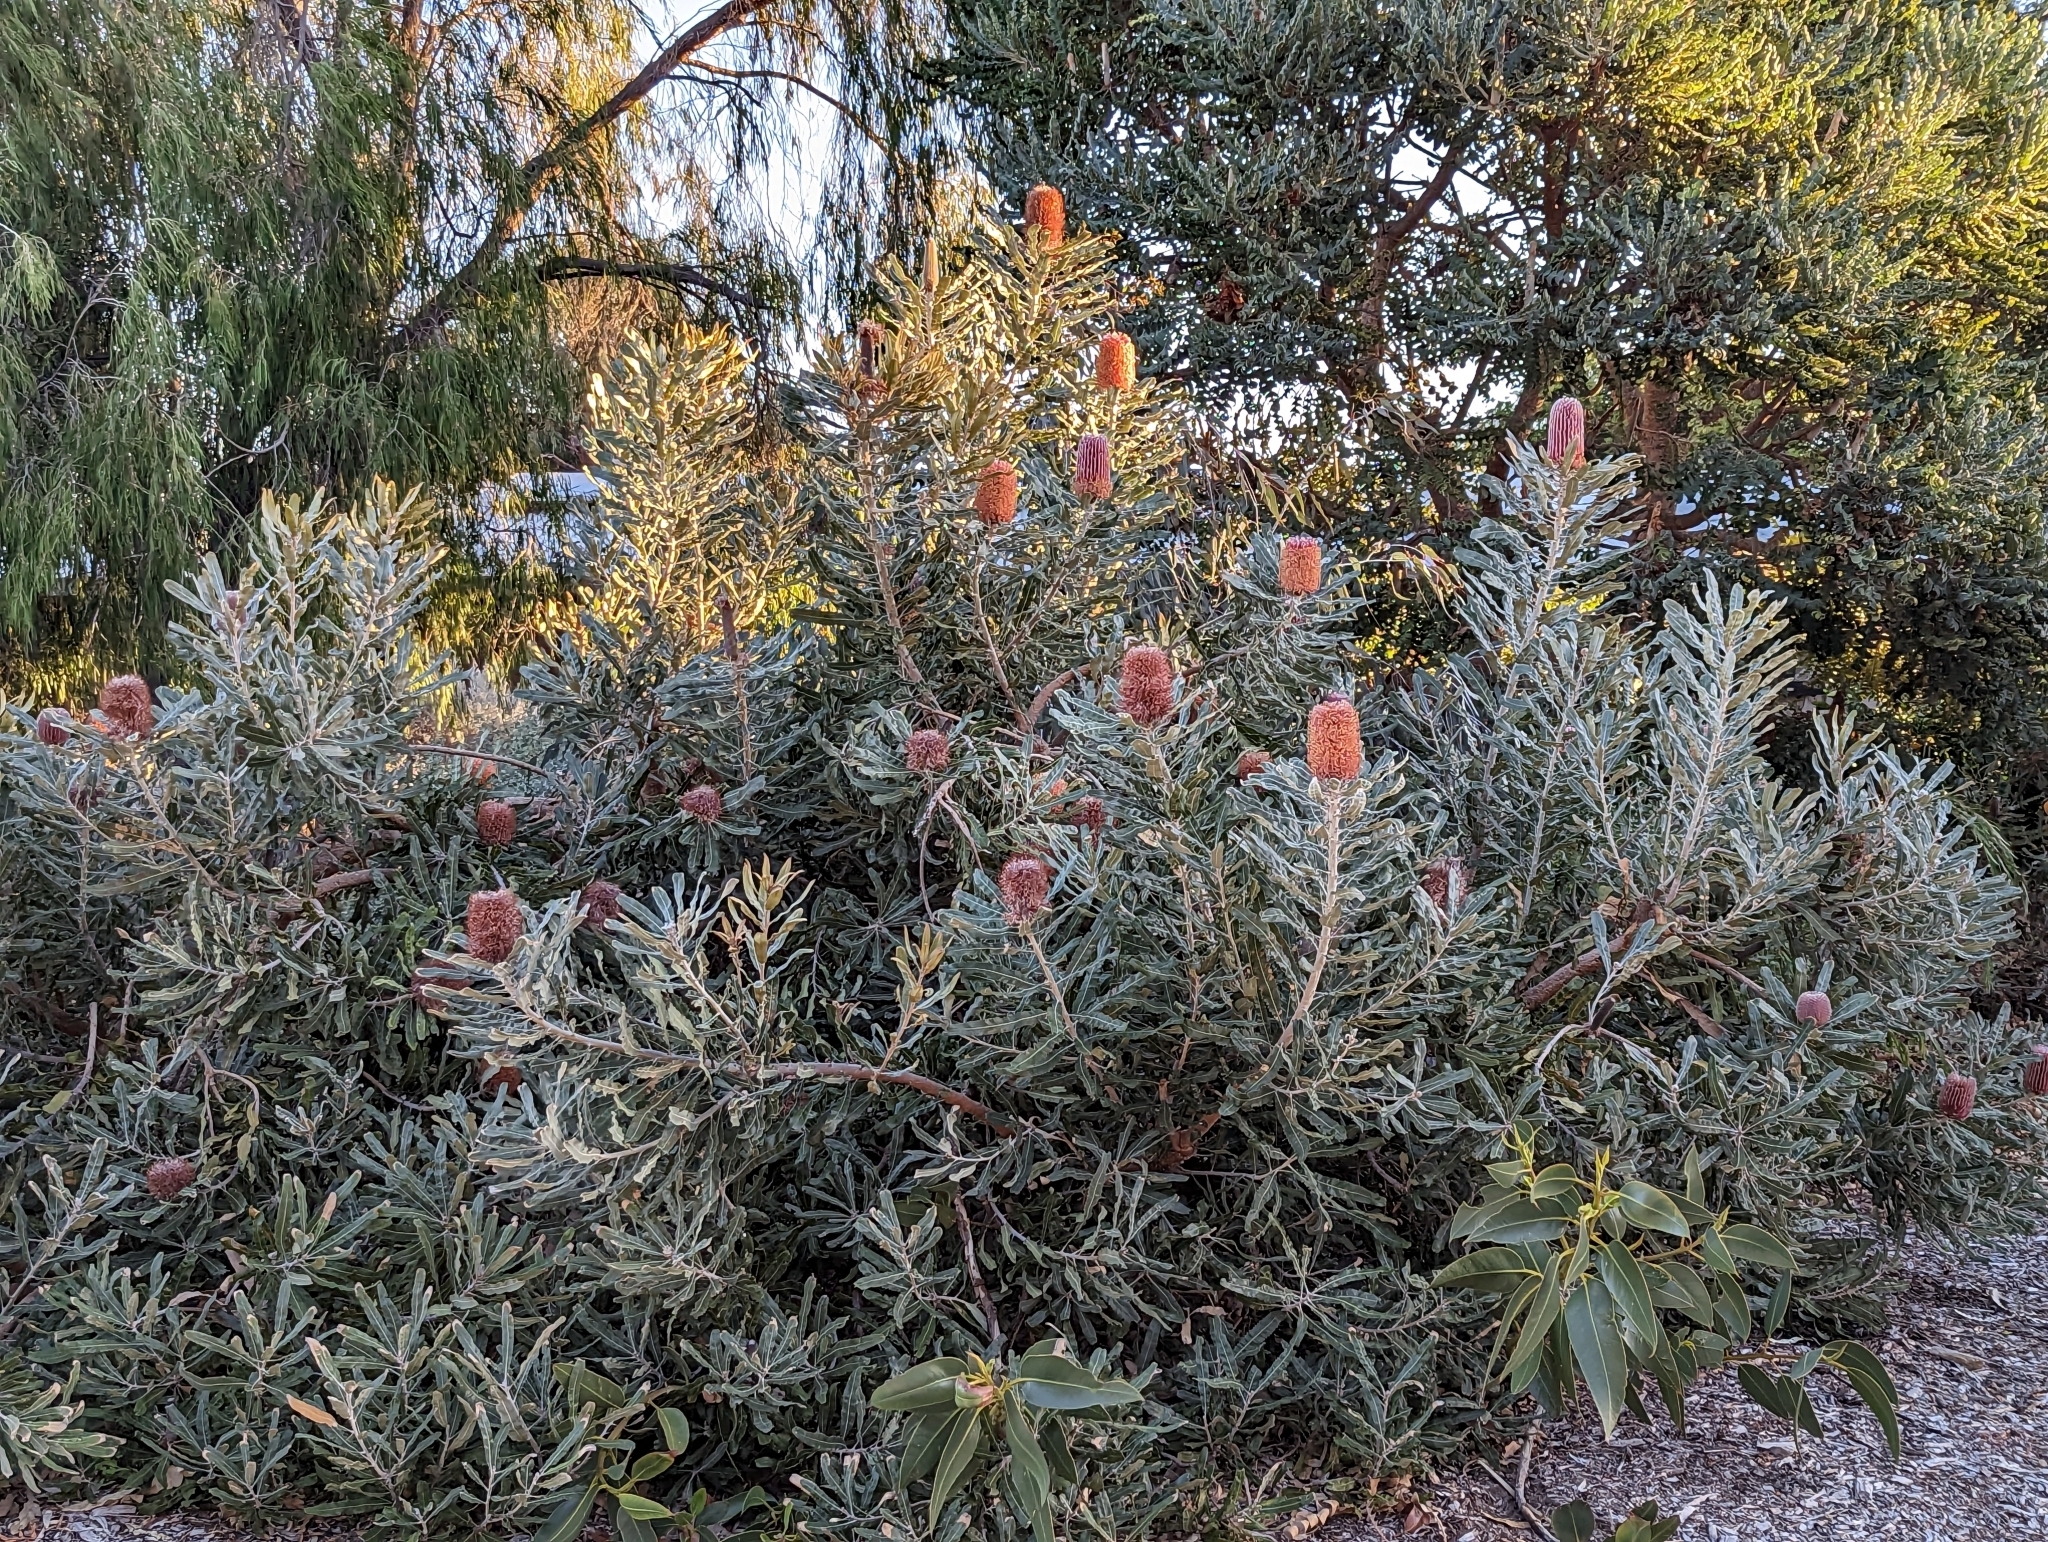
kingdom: Plantae
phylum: Tracheophyta
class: Magnoliopsida
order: Proteales
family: Proteaceae
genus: Banksia
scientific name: Banksia menziesii
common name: Menzie's banksia
